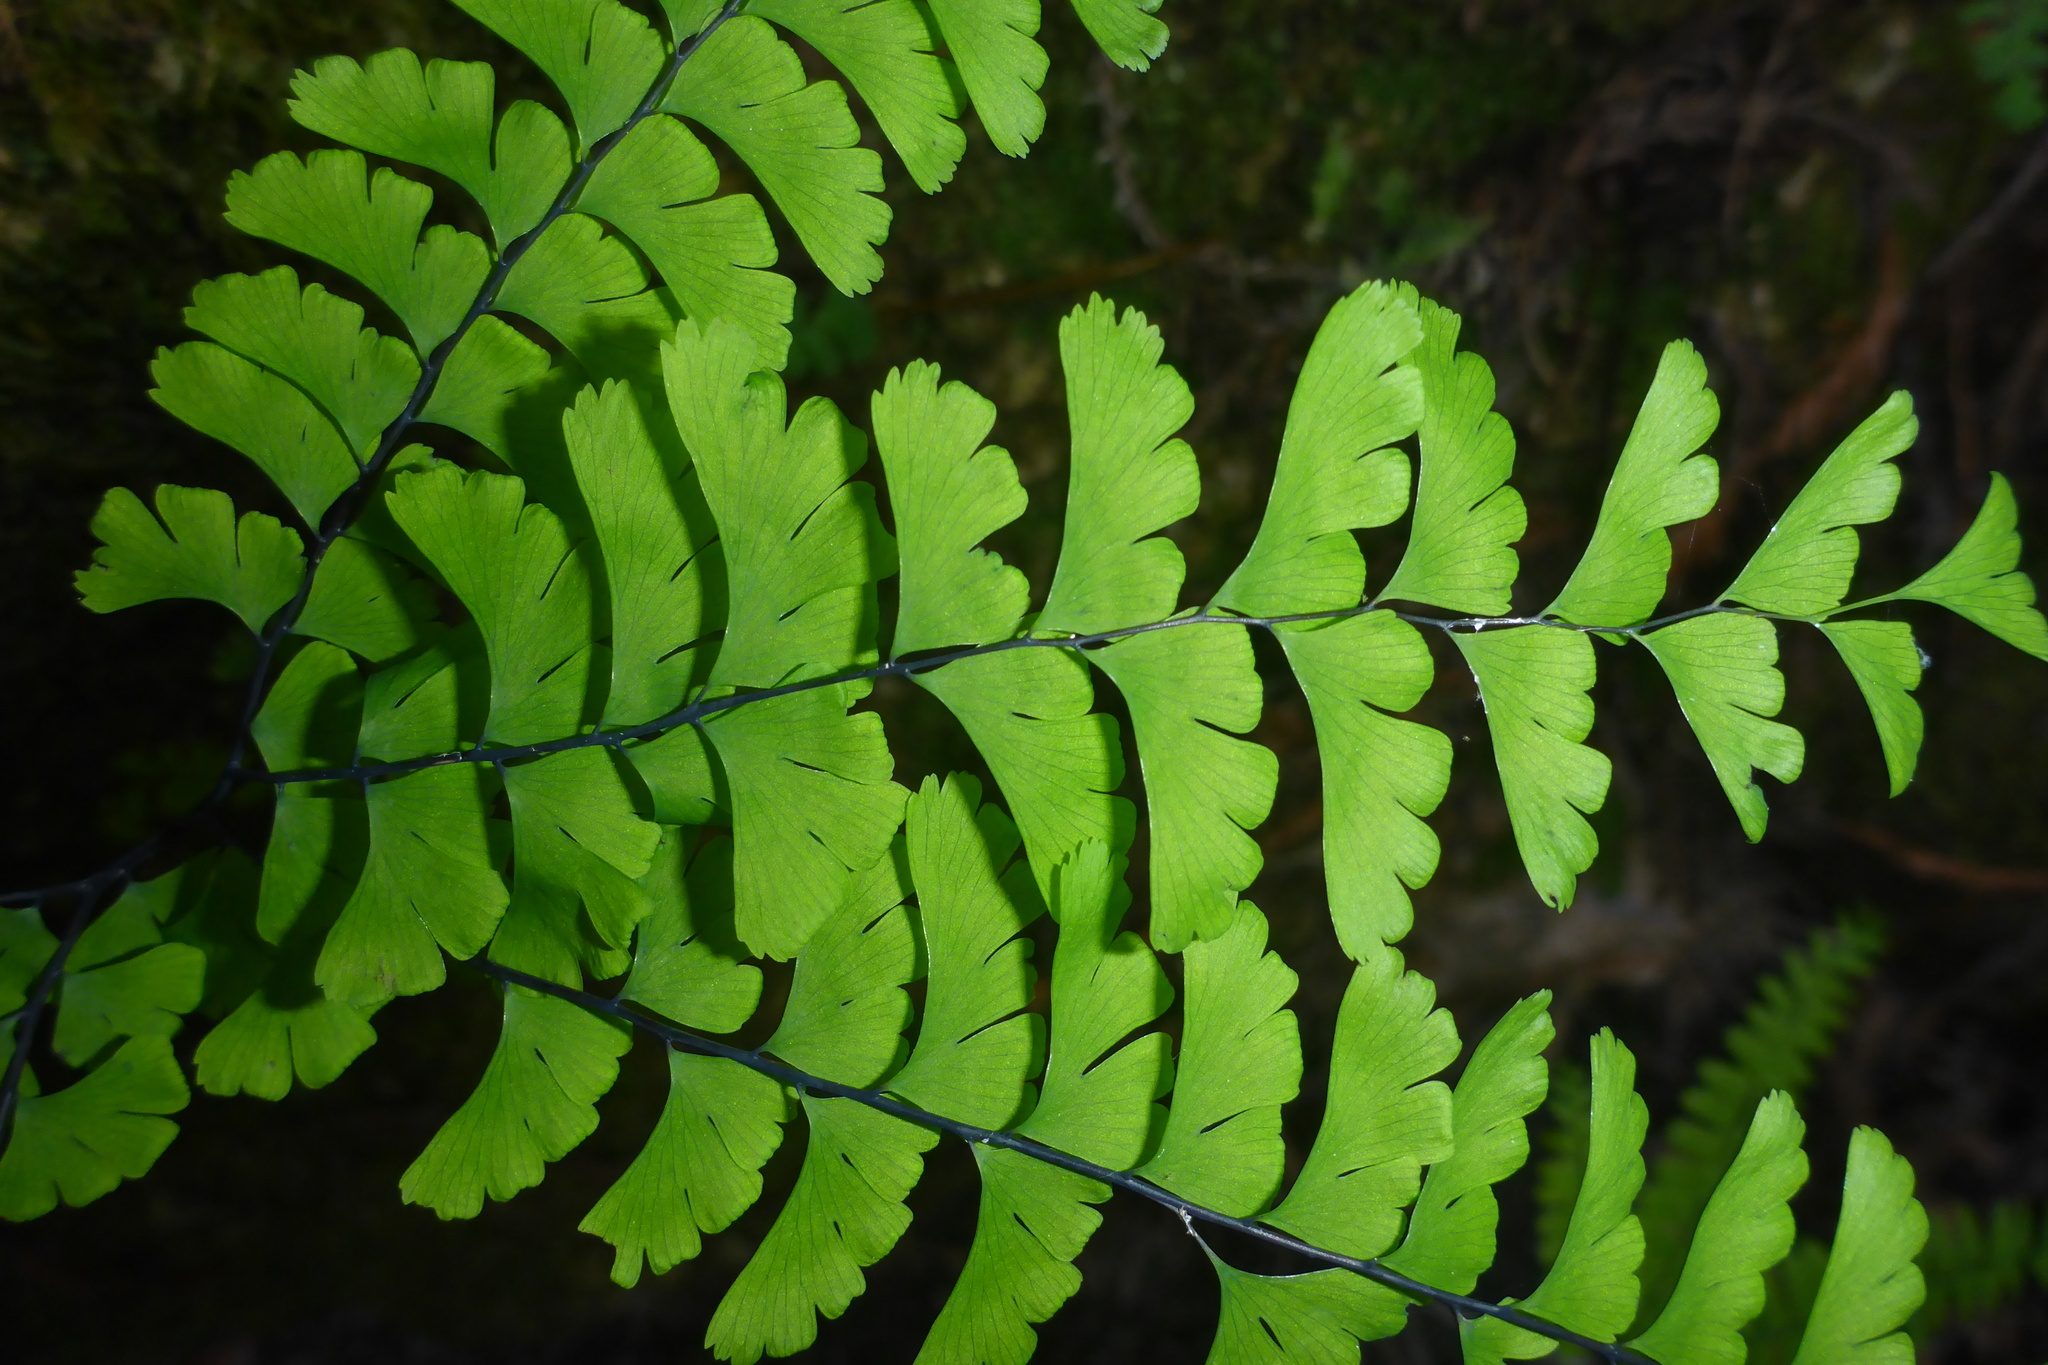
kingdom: Plantae
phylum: Tracheophyta
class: Polypodiopsida
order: Polypodiales
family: Pteridaceae
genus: Adiantum
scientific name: Adiantum aleuticum
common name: Aleutian maidenhair fern
